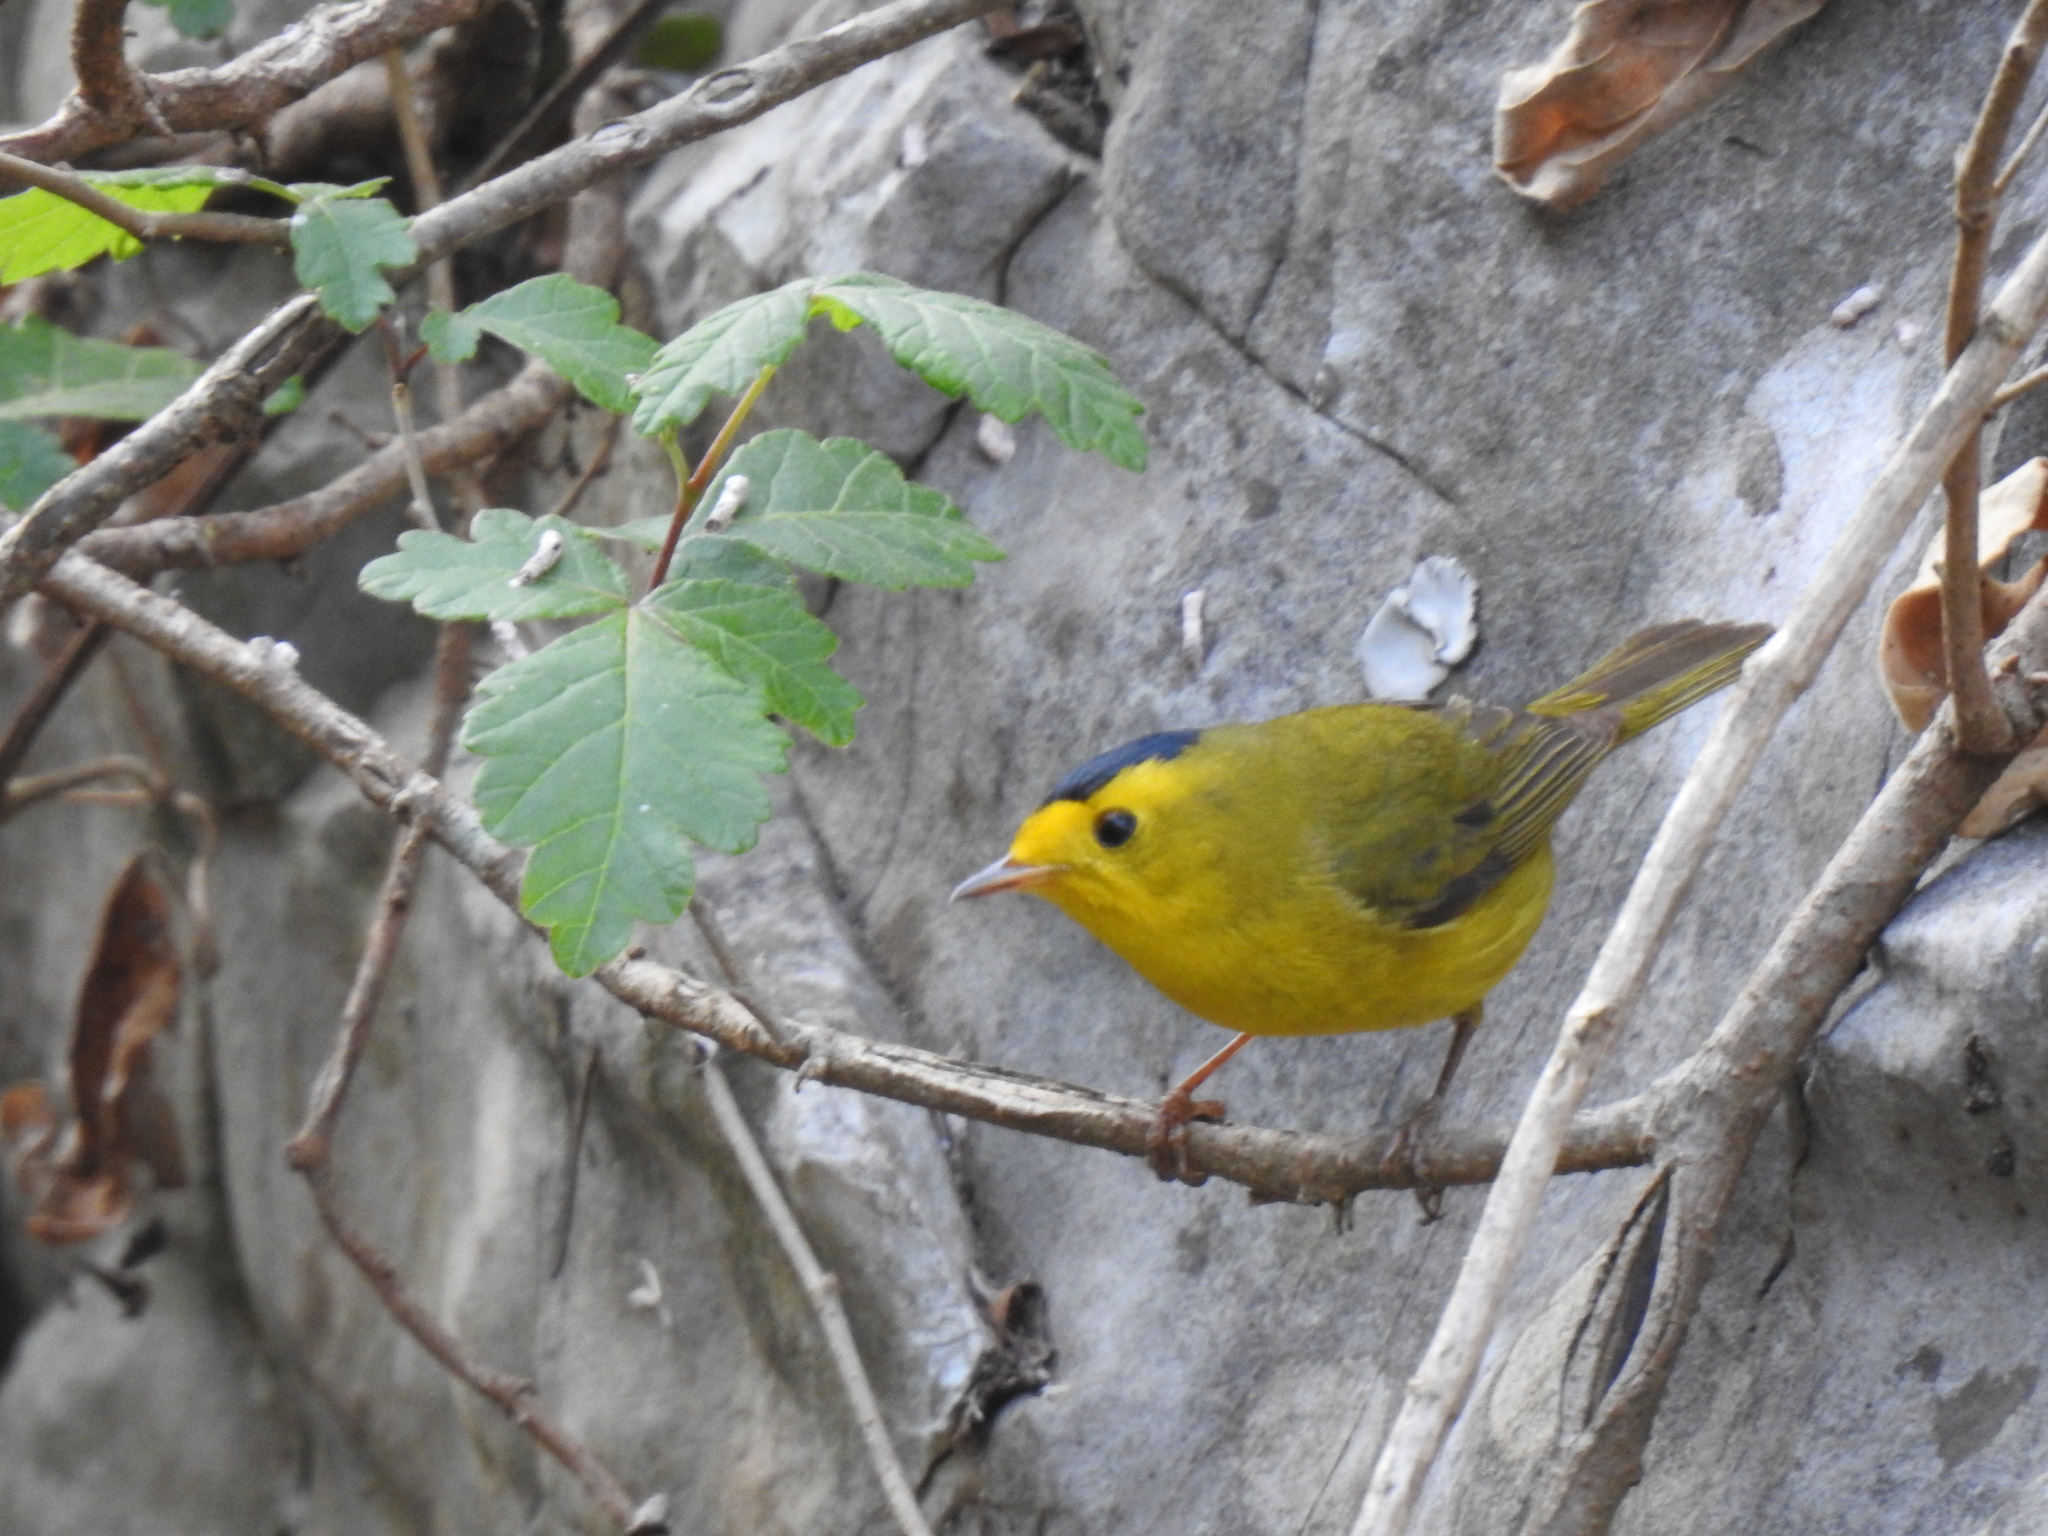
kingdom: Animalia
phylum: Chordata
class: Aves
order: Passeriformes
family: Parulidae
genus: Cardellina
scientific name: Cardellina pusilla
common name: Wilson's warbler
